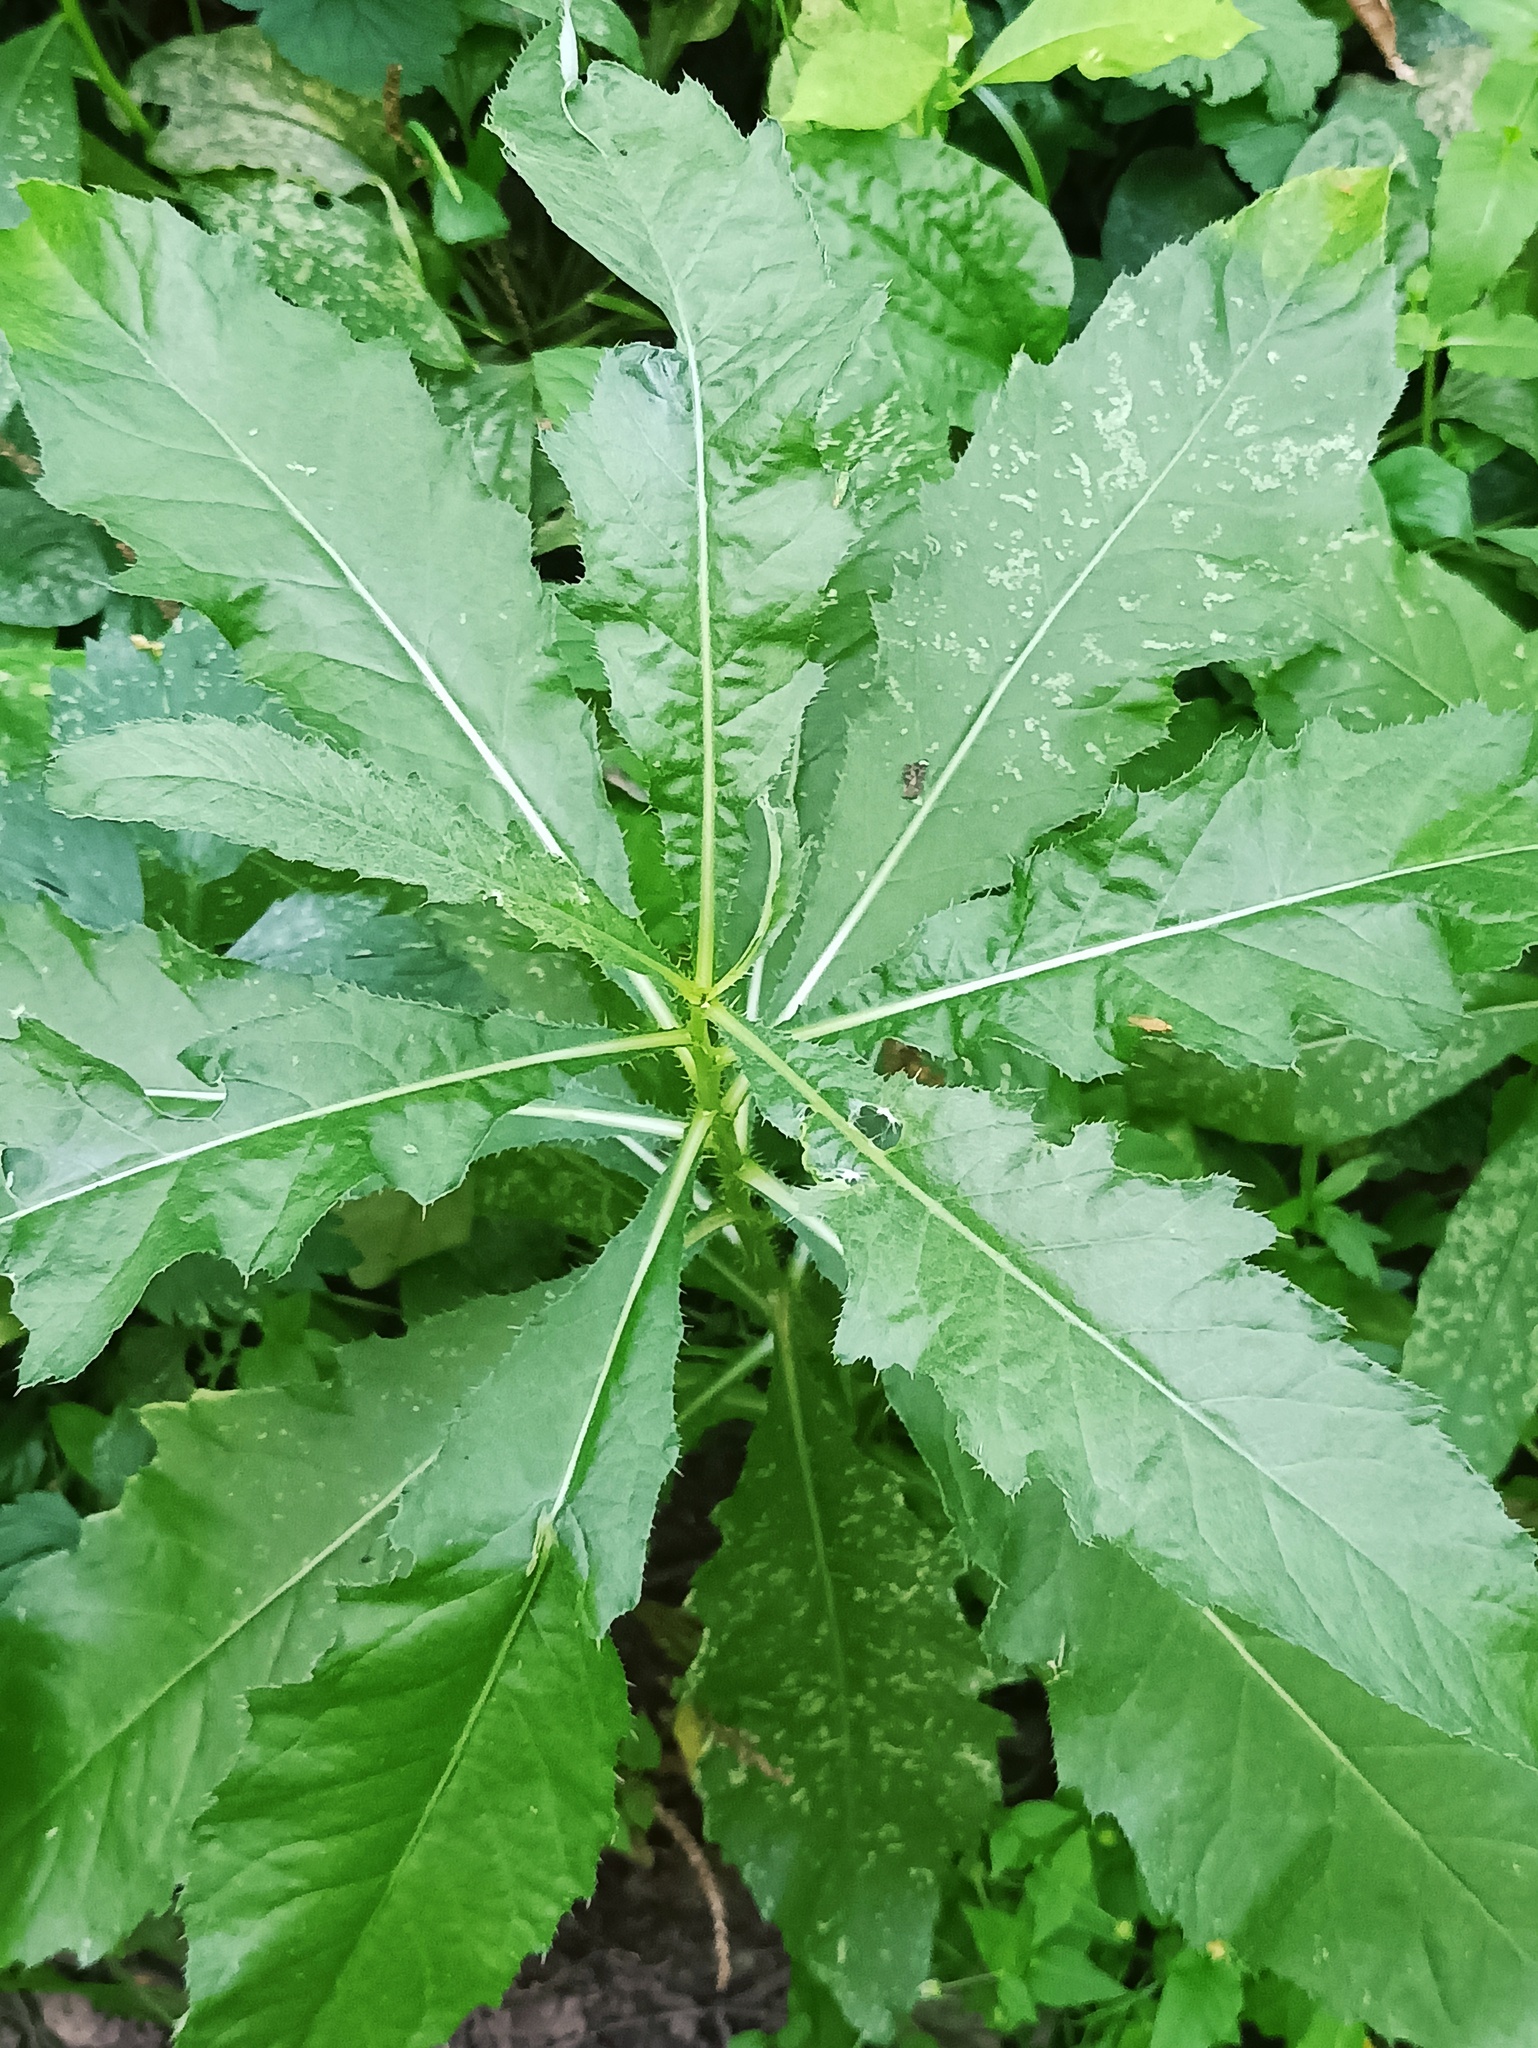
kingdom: Plantae
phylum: Tracheophyta
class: Magnoliopsida
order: Asterales
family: Asteraceae
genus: Cirsium
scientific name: Cirsium arvense
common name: Creeping thistle
